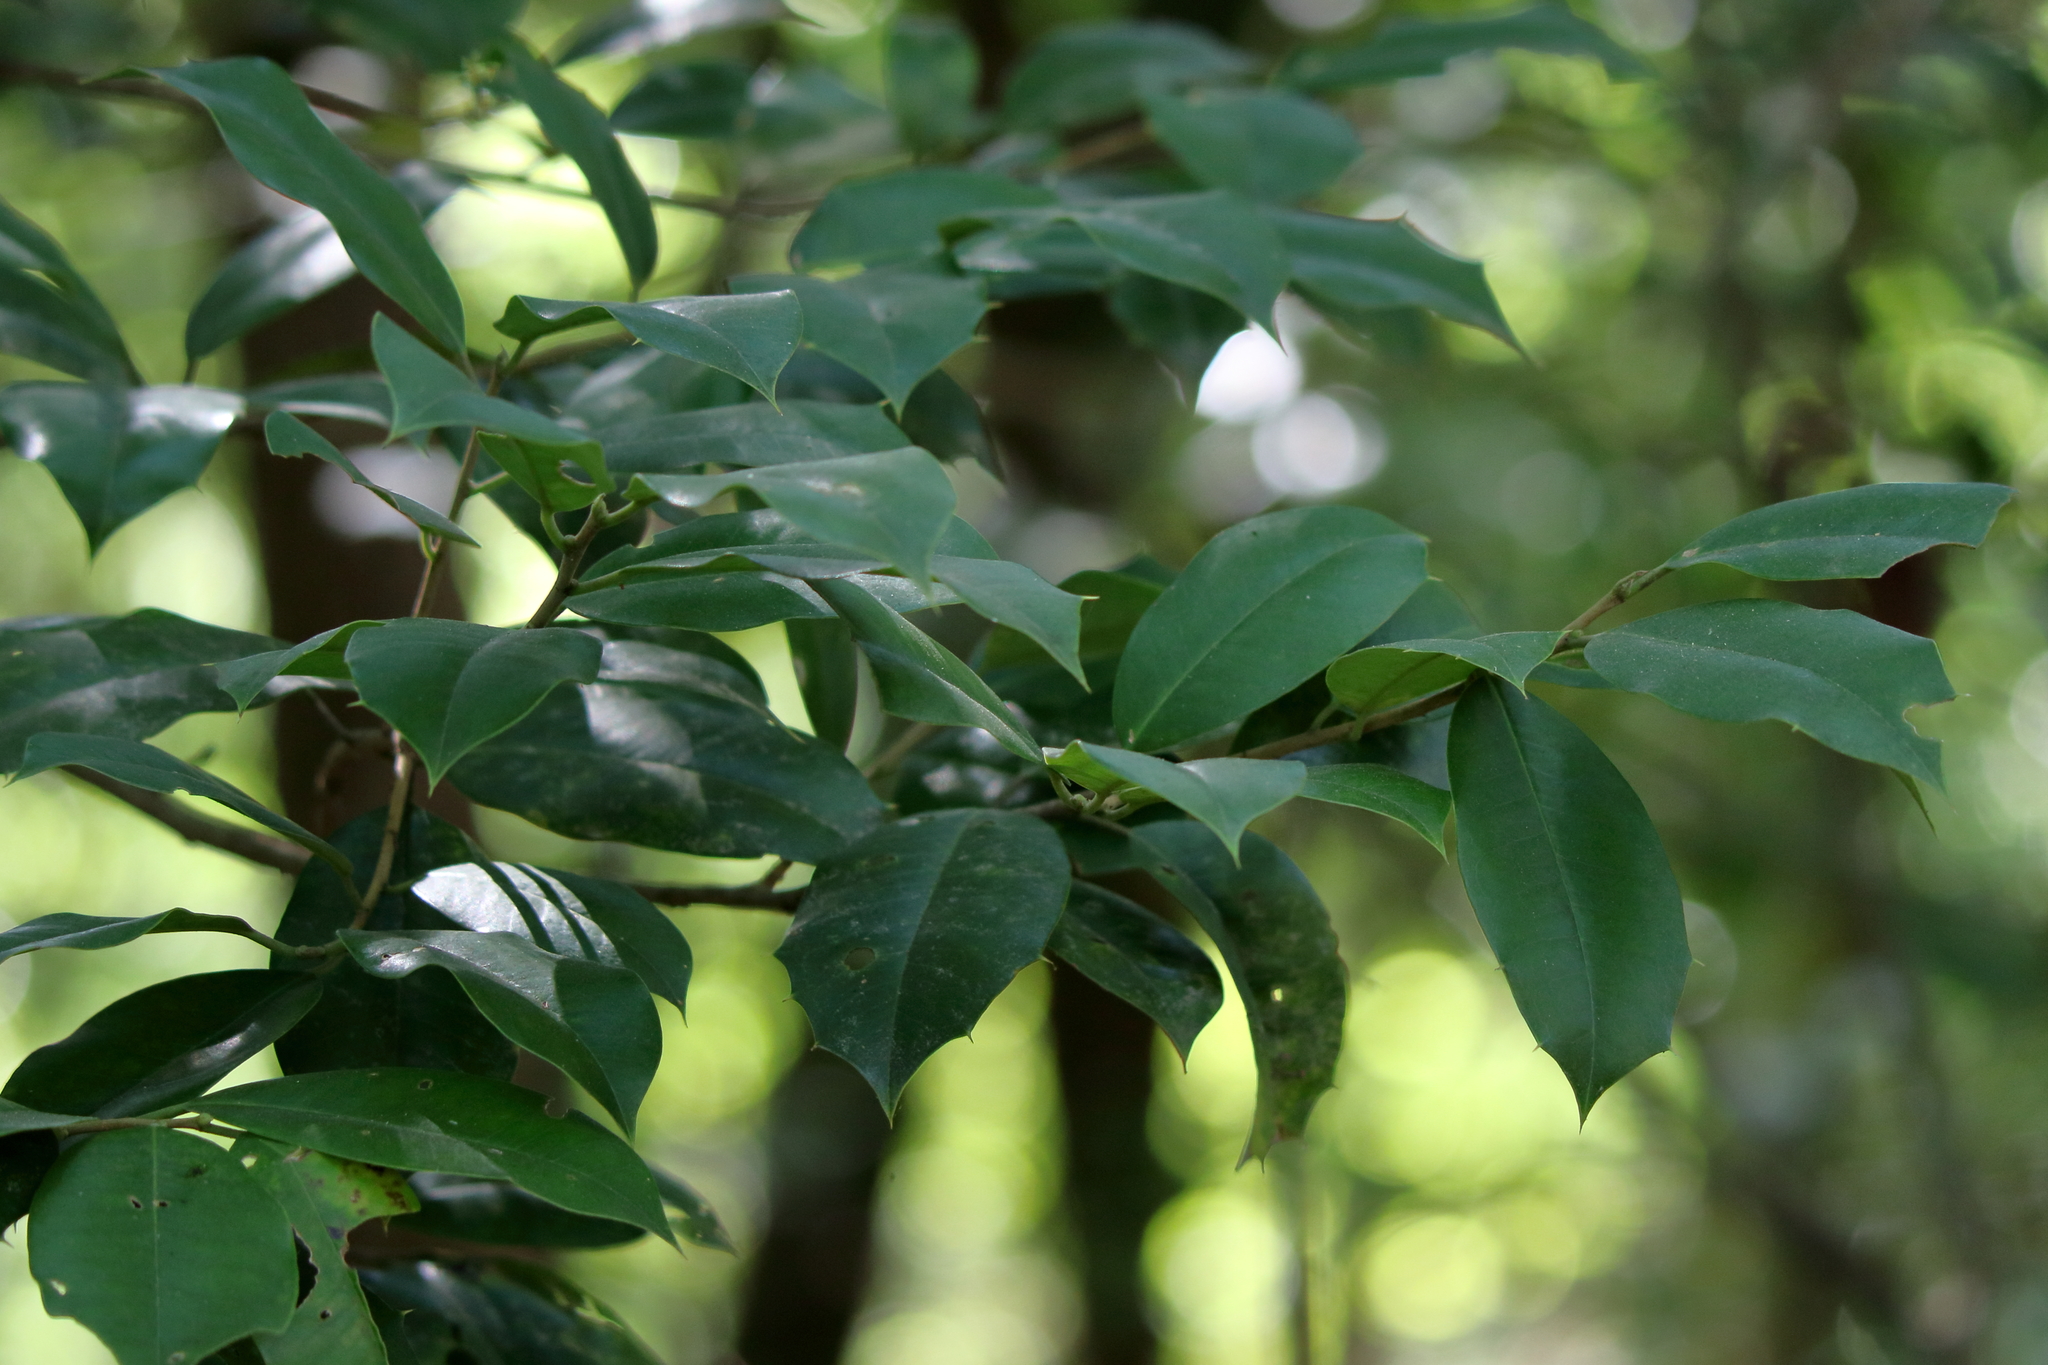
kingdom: Plantae
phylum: Tracheophyta
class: Magnoliopsida
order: Aquifoliales
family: Aquifoliaceae
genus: Ilex
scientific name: Ilex opaca
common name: American holly
